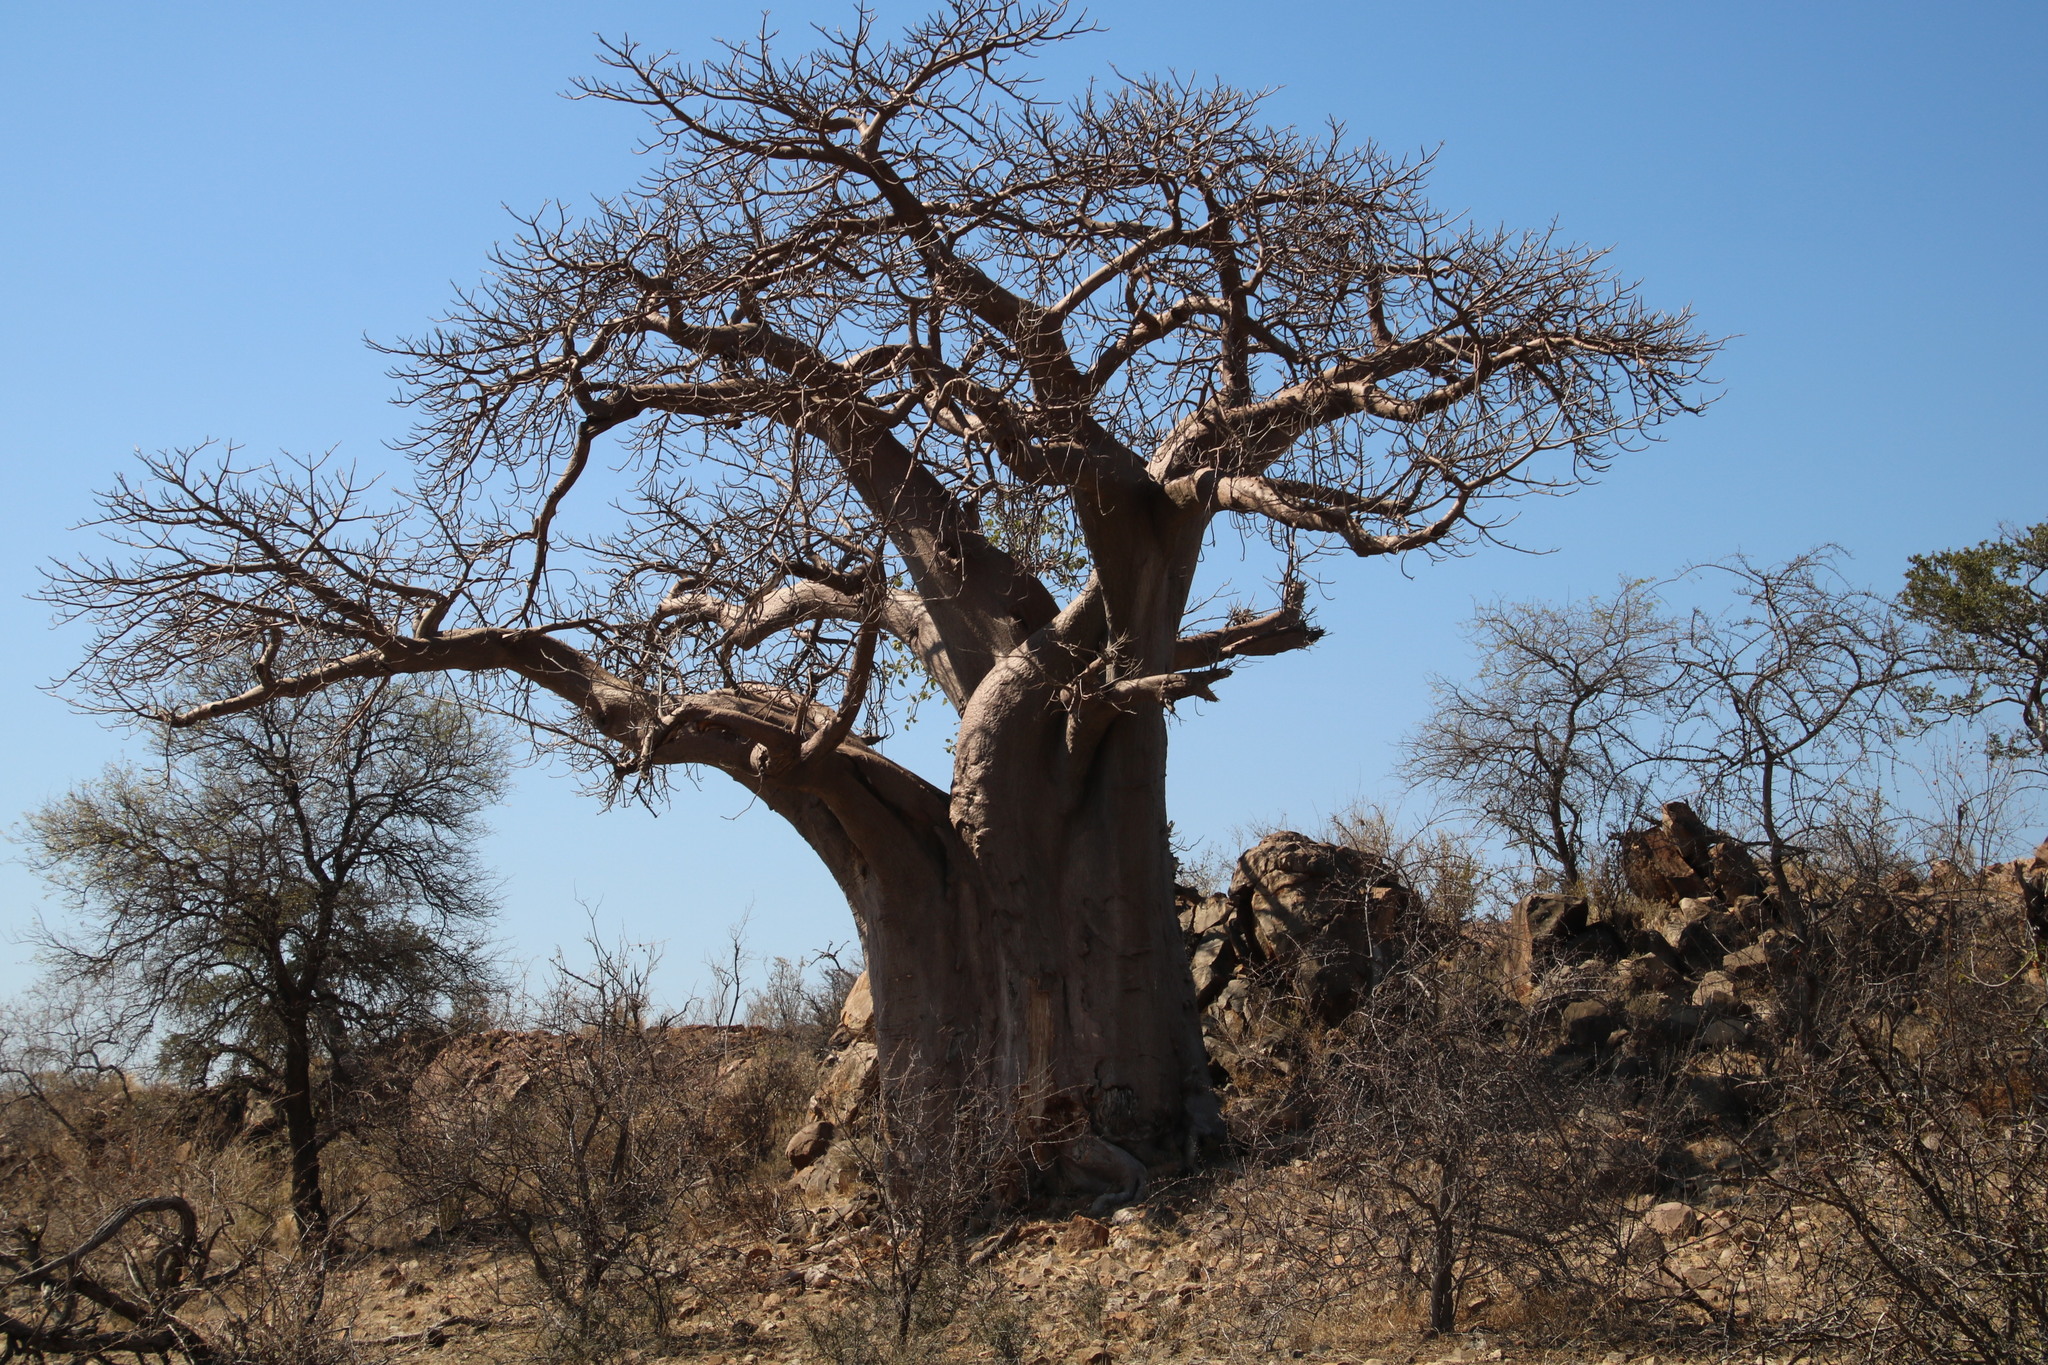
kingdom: Plantae
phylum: Tracheophyta
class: Magnoliopsida
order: Malvales
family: Malvaceae
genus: Adansonia
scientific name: Adansonia digitata
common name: Dead-rat-tree
